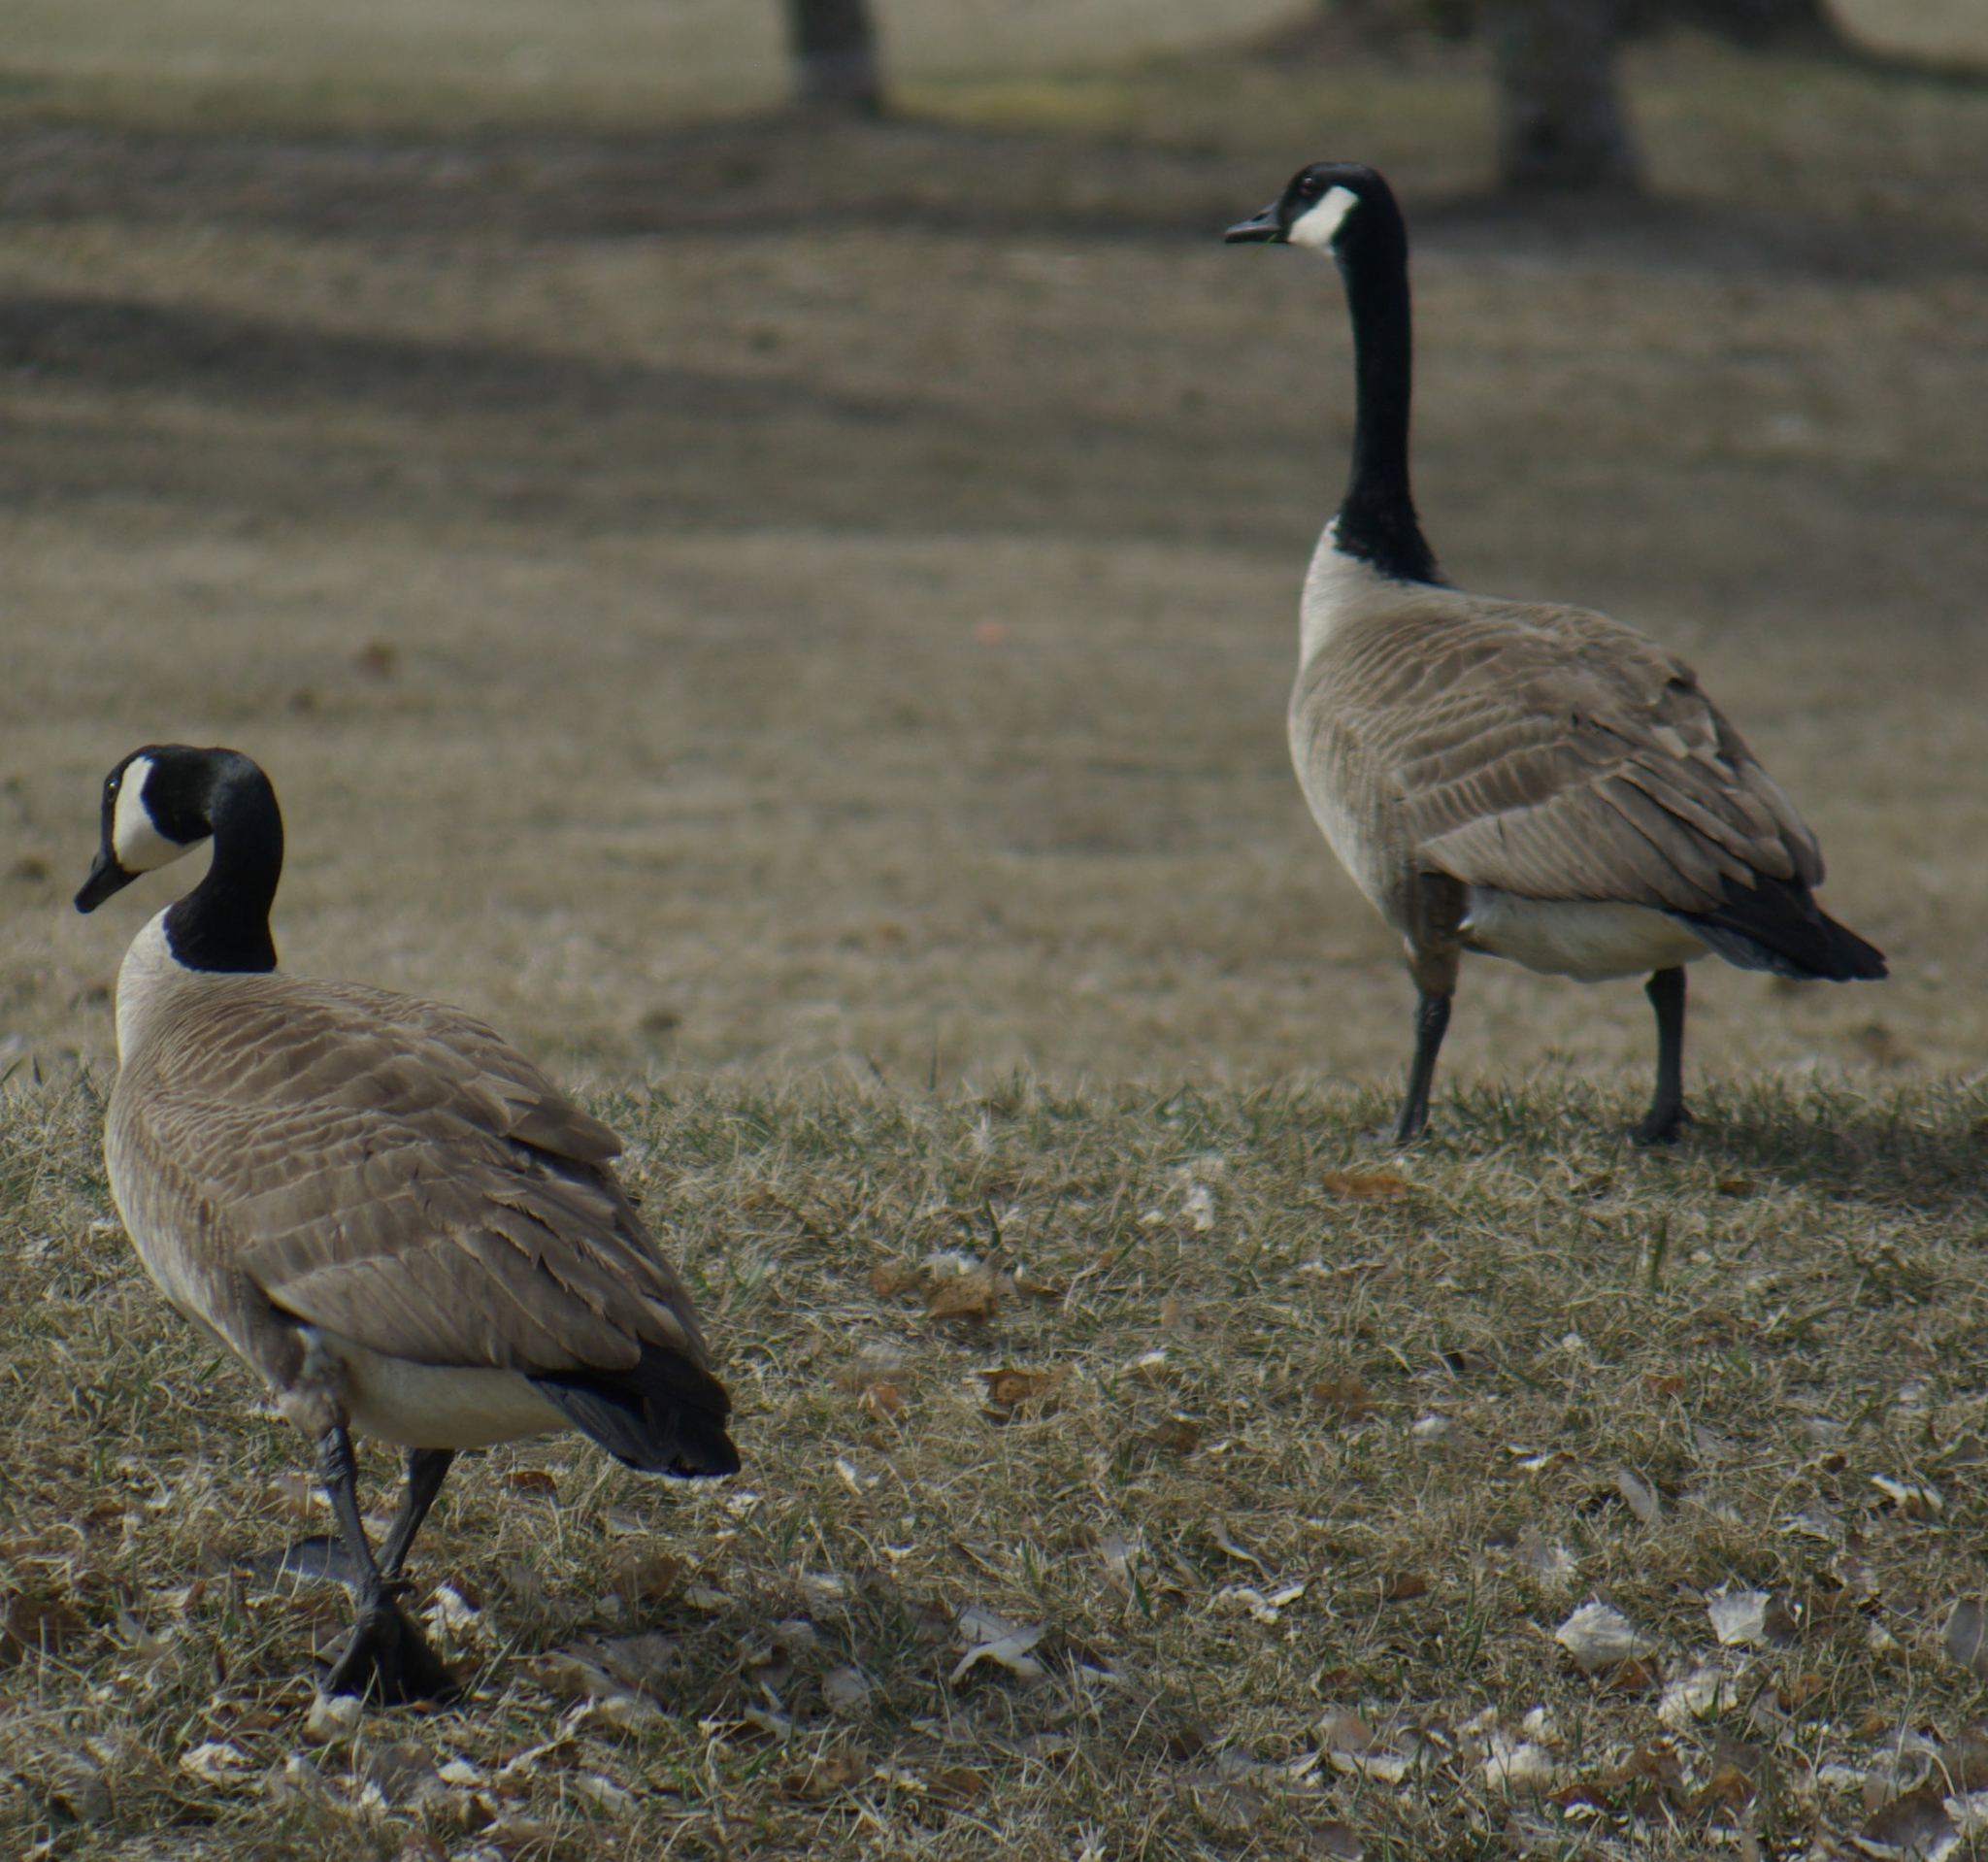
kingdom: Animalia
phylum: Chordata
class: Aves
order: Anseriformes
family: Anatidae
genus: Branta
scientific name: Branta canadensis
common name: Canada goose
